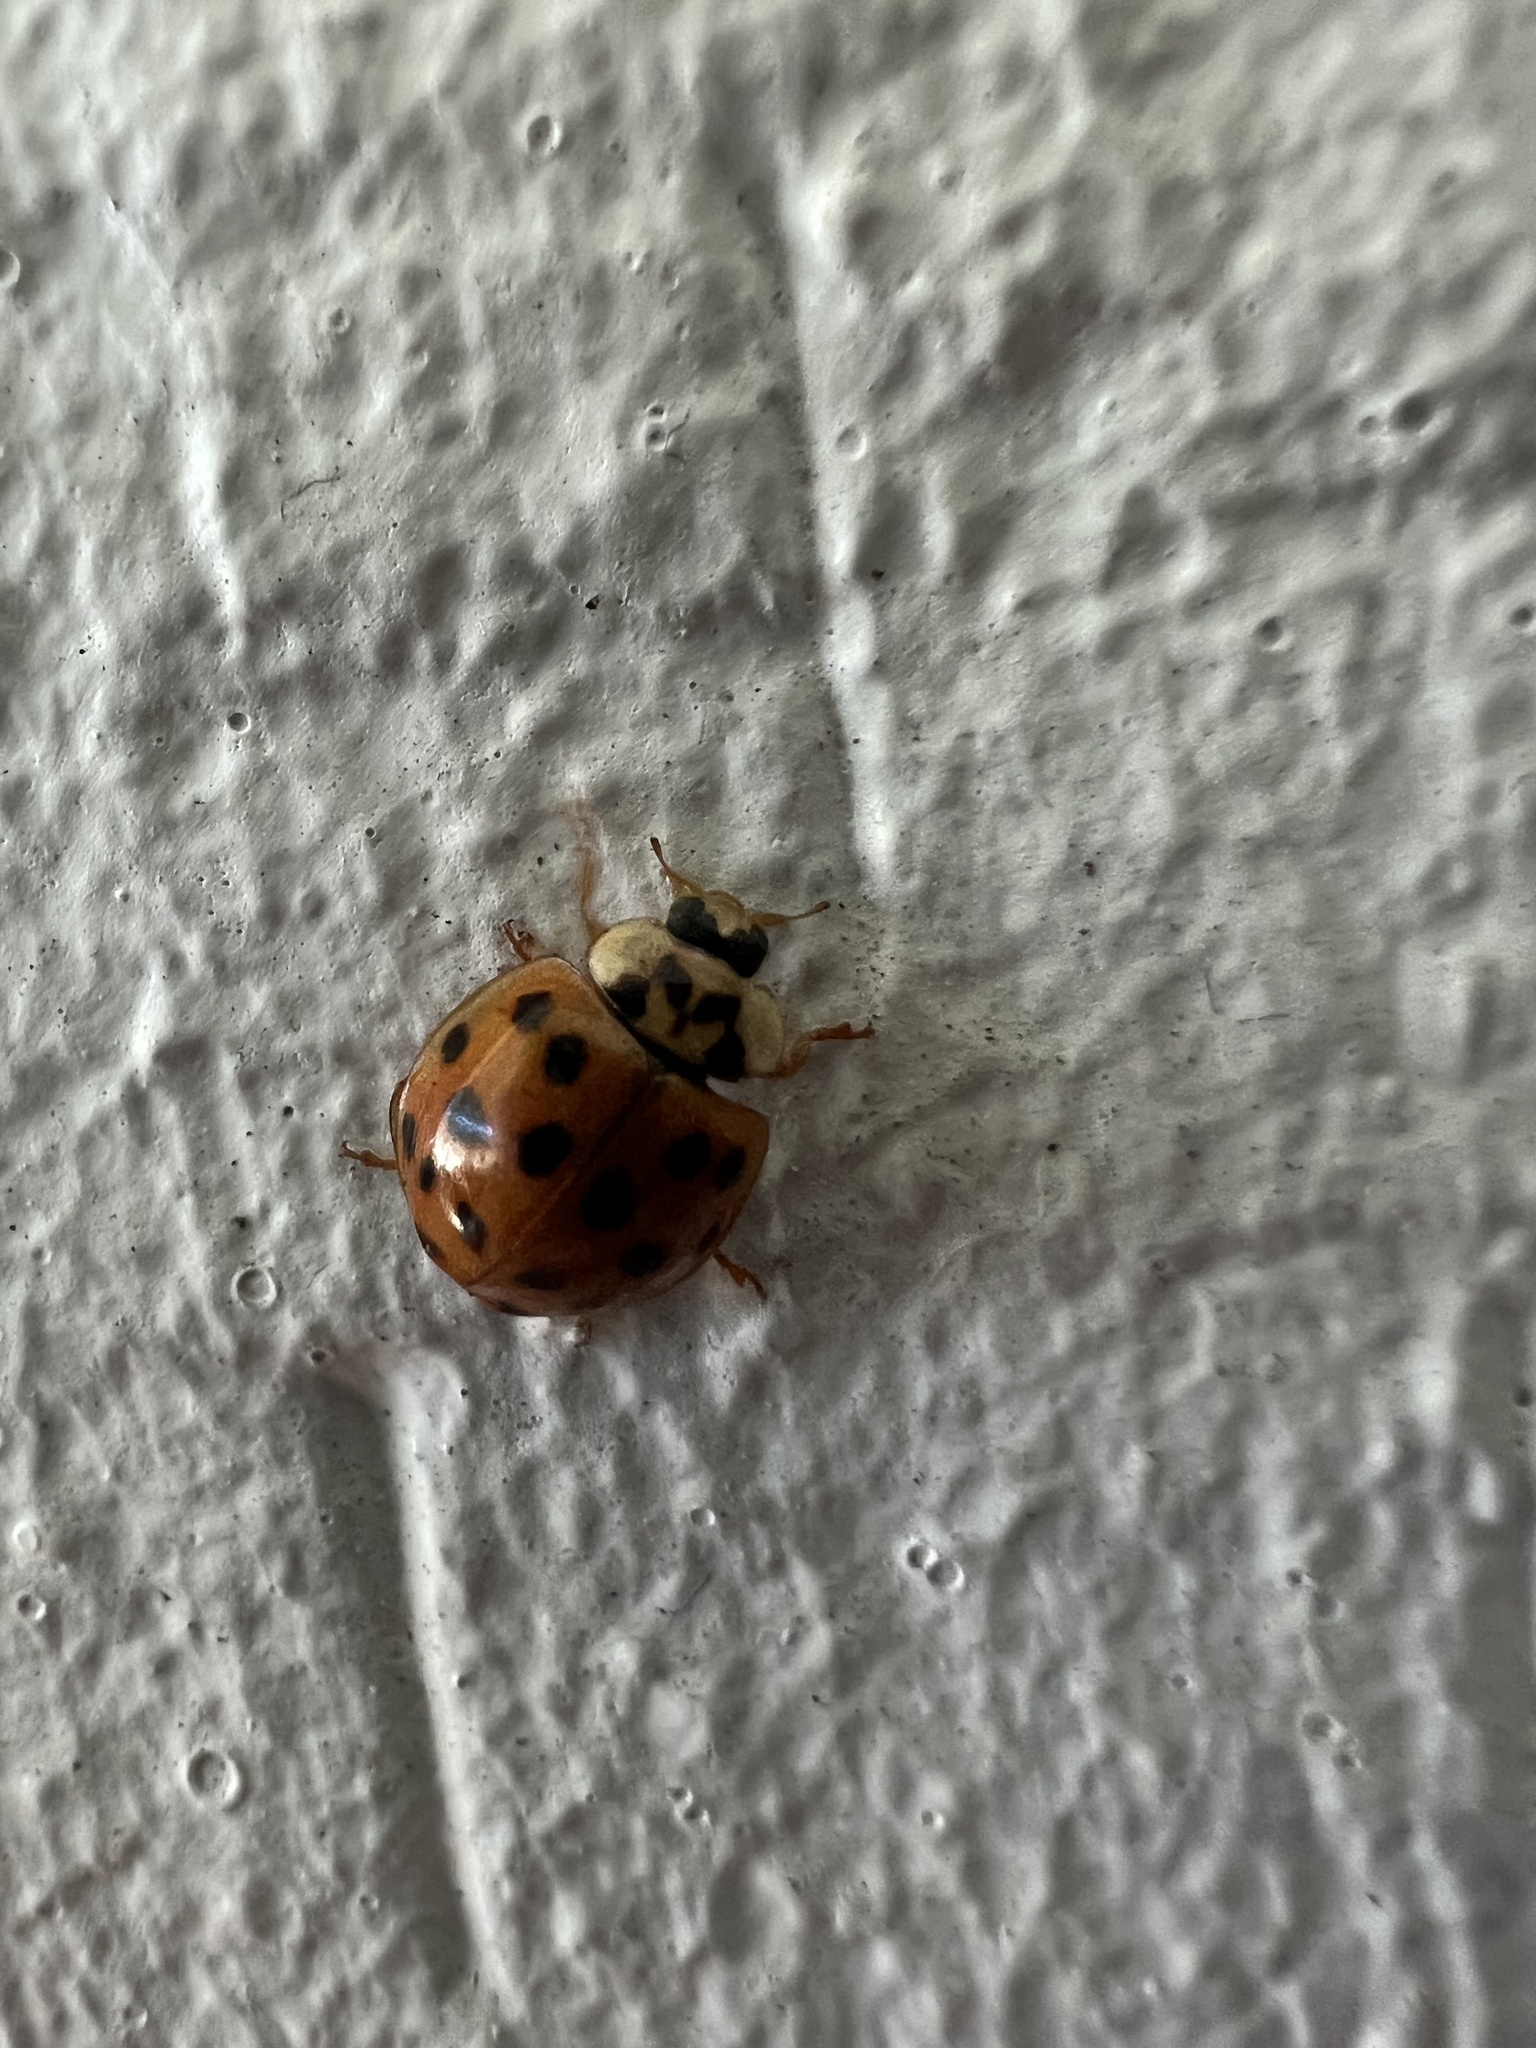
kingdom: Animalia
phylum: Arthropoda
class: Insecta
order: Coleoptera
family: Coccinellidae
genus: Harmonia
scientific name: Harmonia axyridis
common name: Harlequin ladybird
